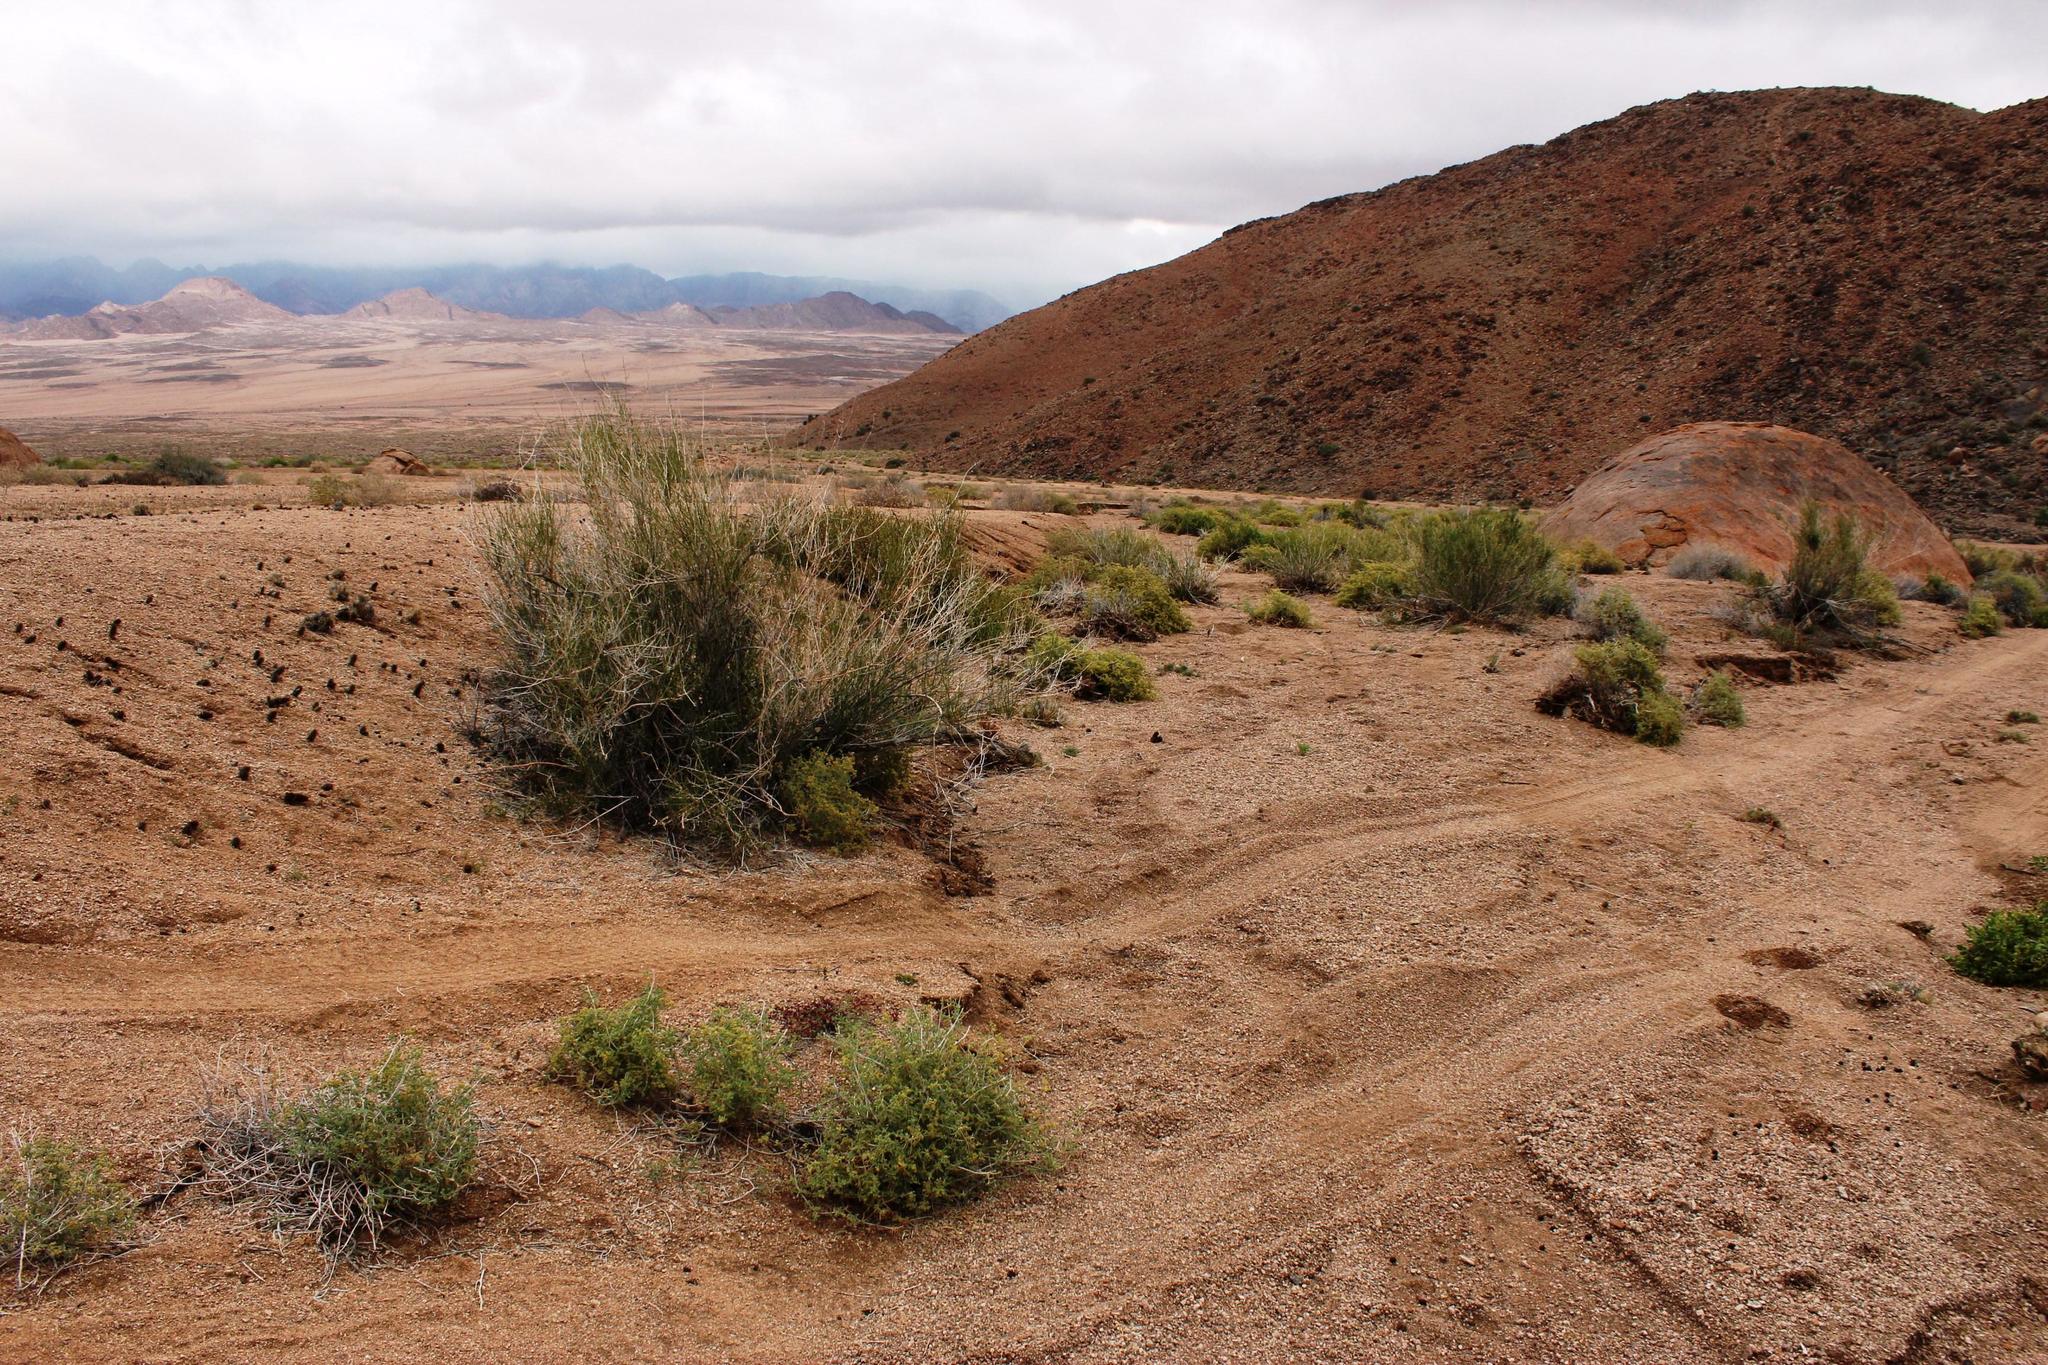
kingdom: Plantae
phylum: Tracheophyta
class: Magnoliopsida
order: Zygophyllales
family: Zygophyllaceae
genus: Sisyndite
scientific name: Sisyndite spartea
